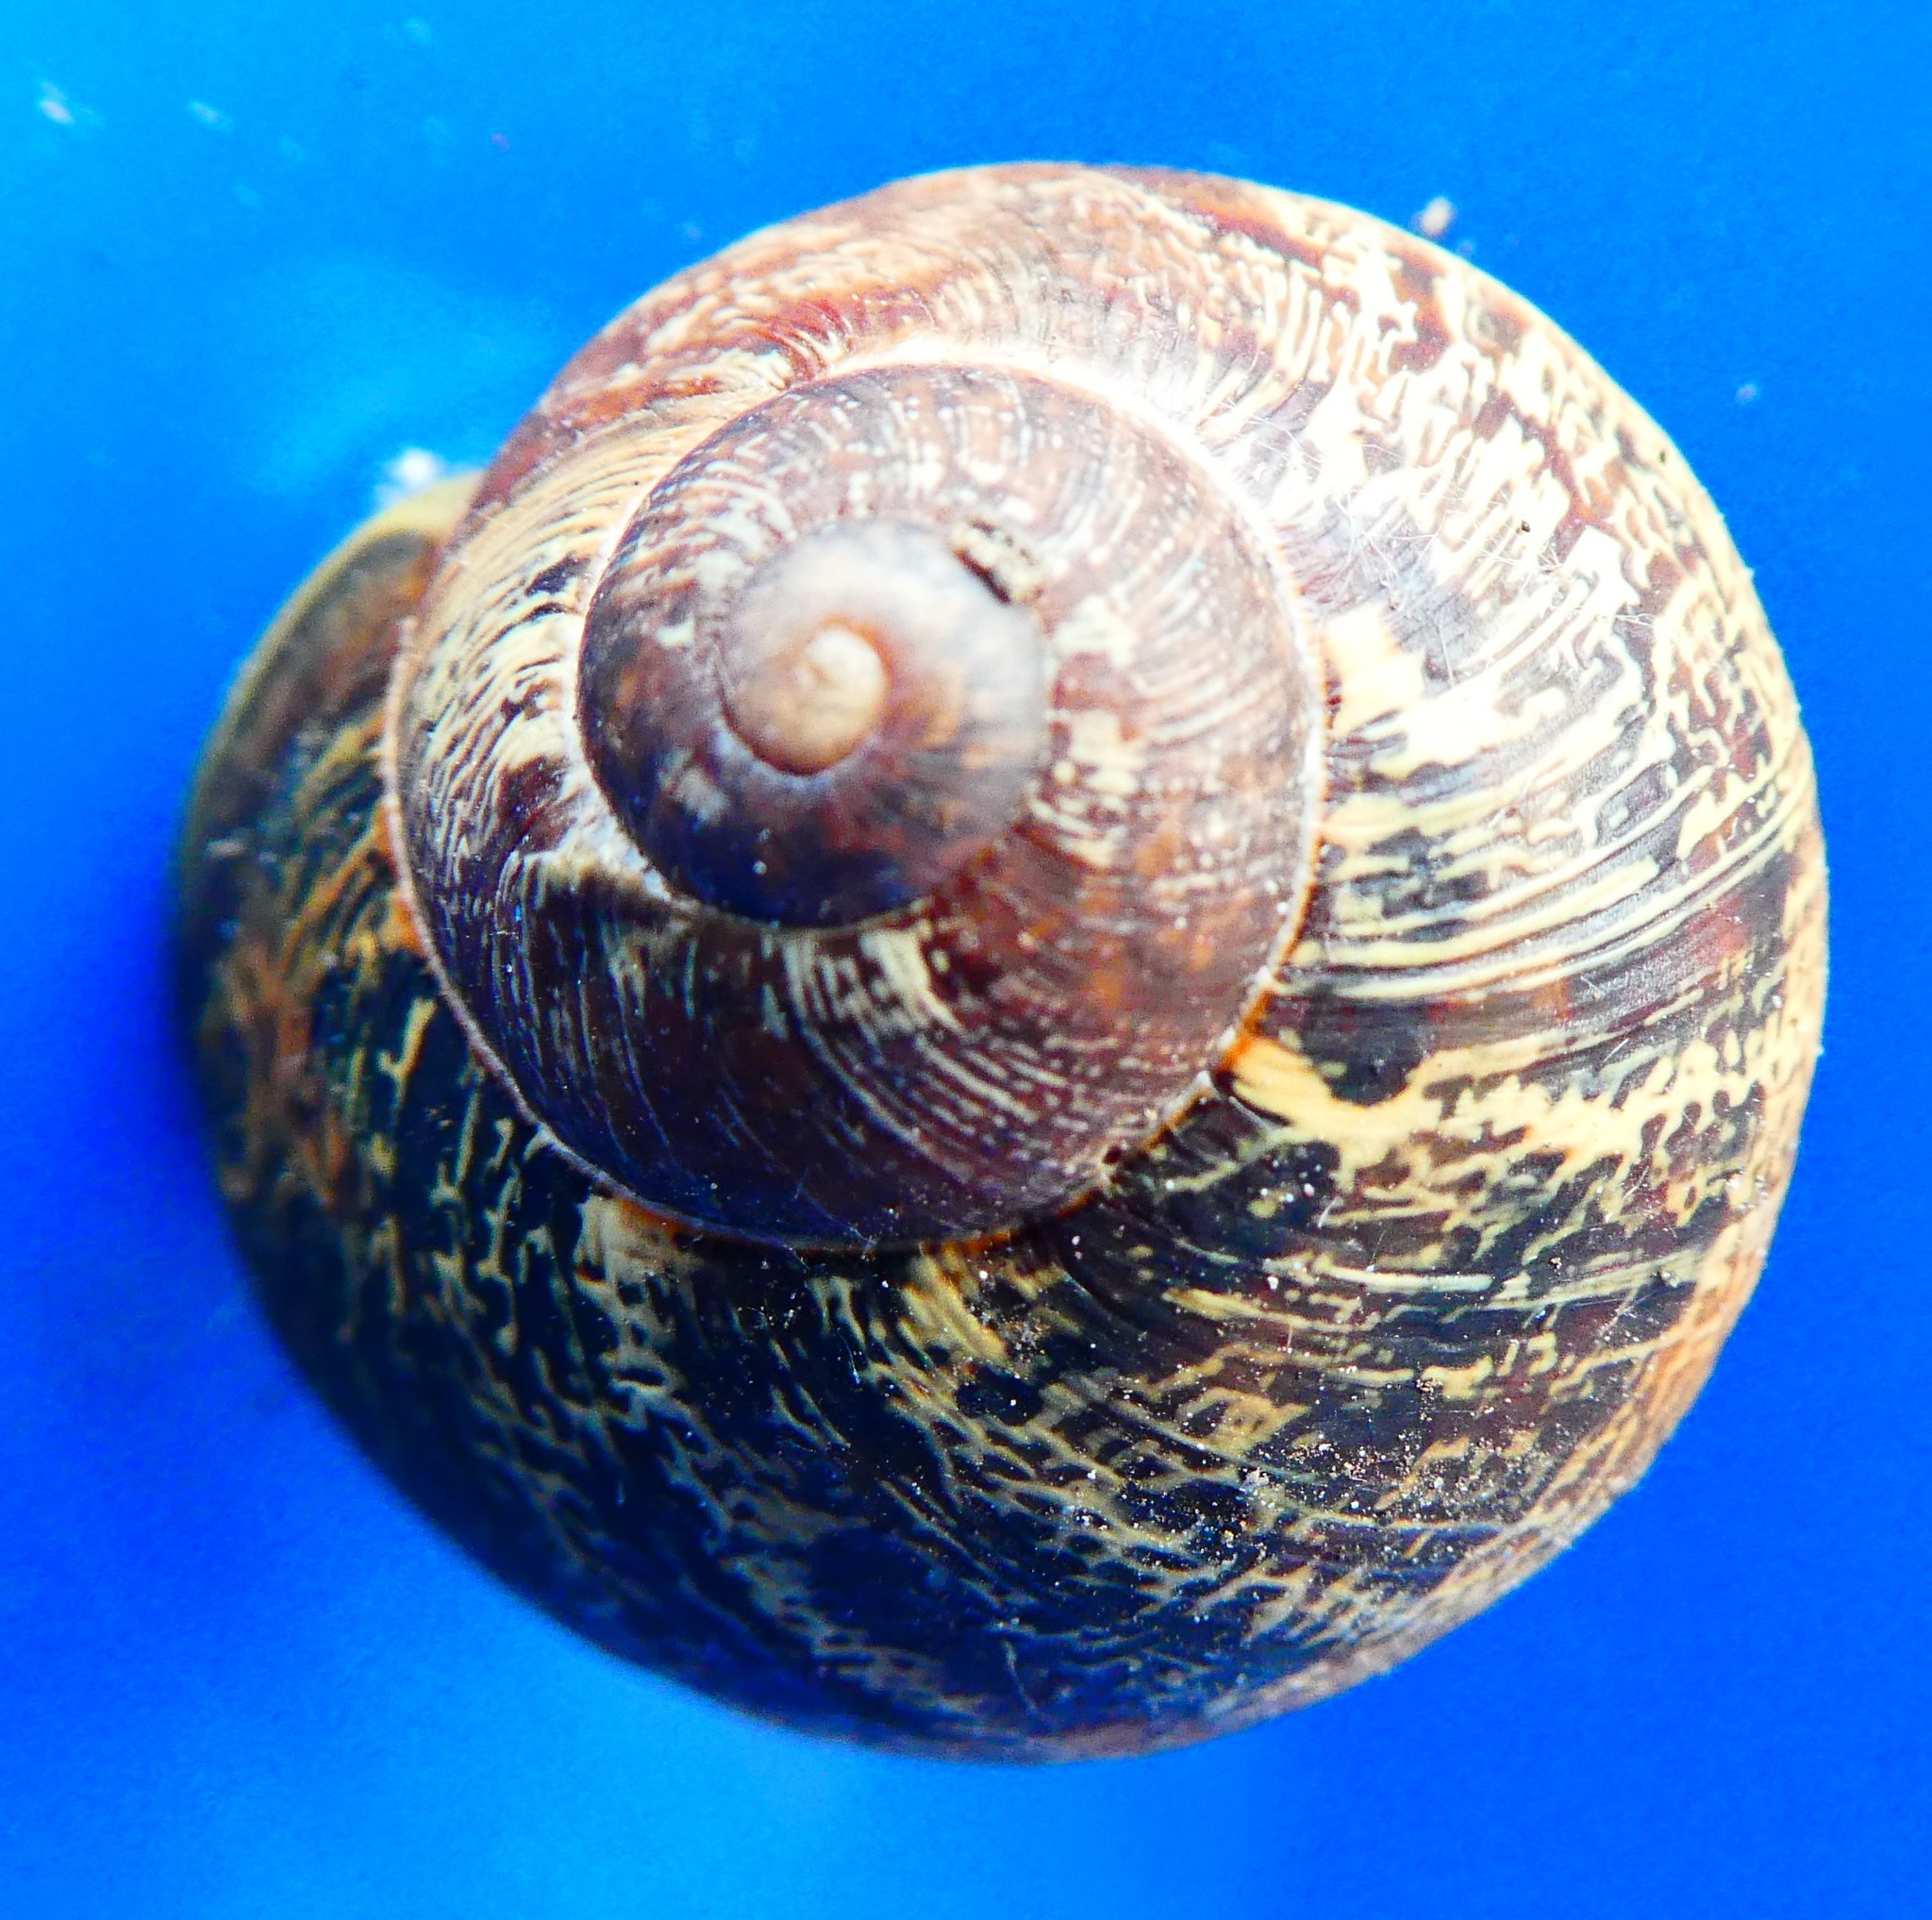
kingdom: Animalia
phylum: Mollusca
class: Gastropoda
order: Stylommatophora
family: Helicidae
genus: Cornu
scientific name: Cornu aspersum
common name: Brown garden snail
